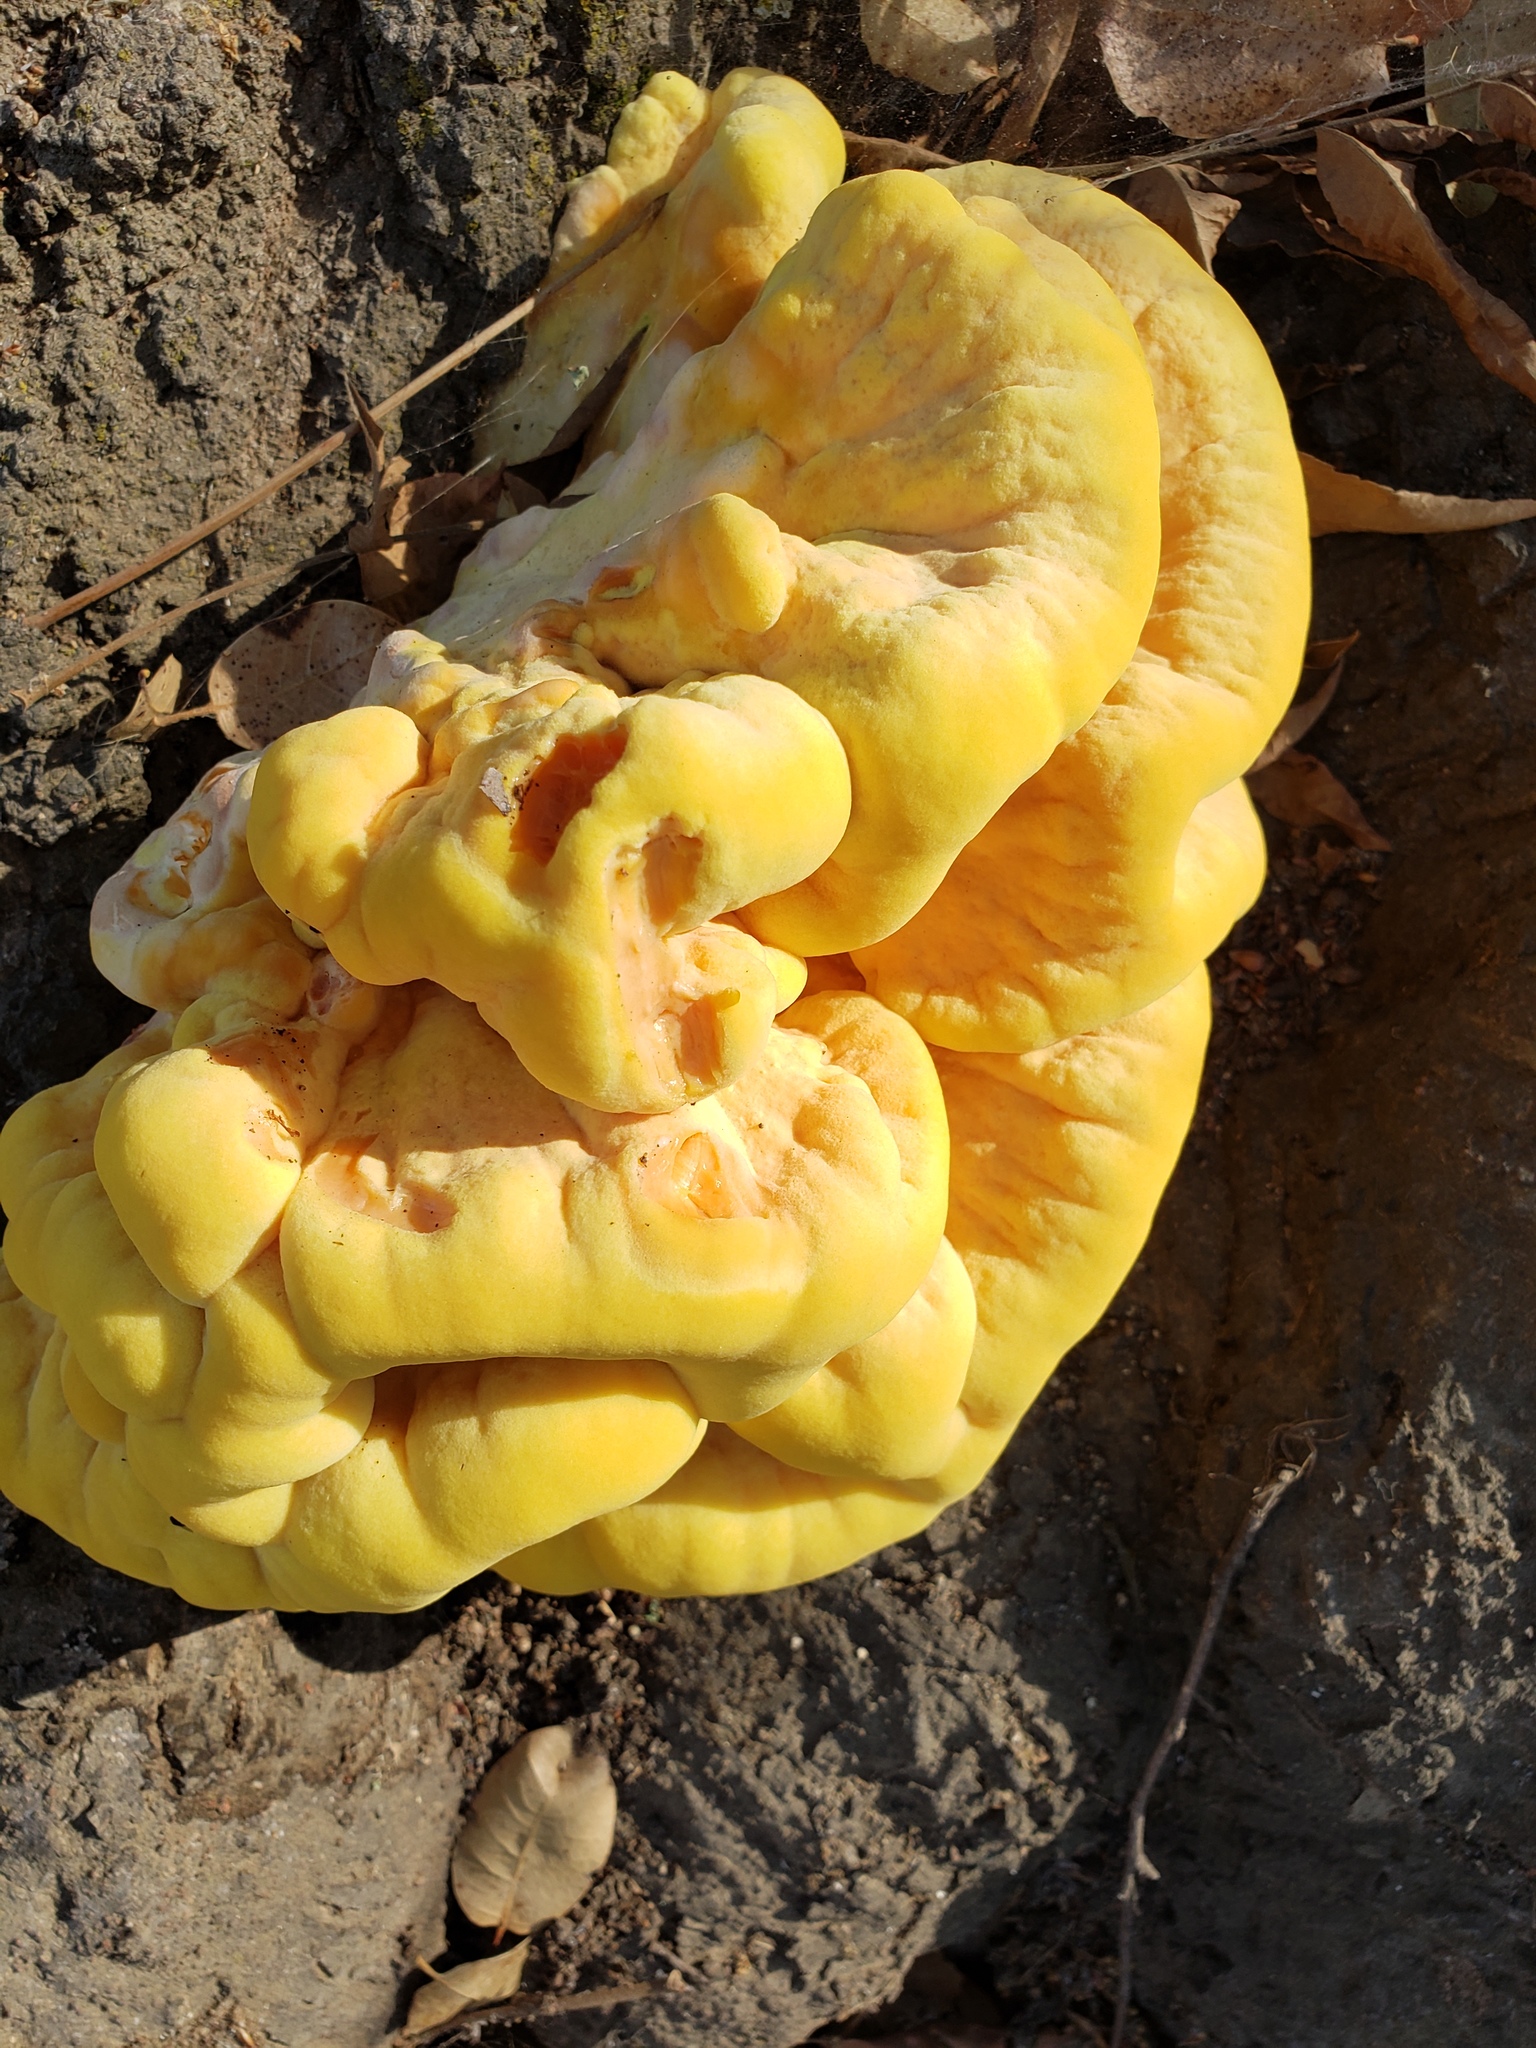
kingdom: Fungi
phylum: Basidiomycota
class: Agaricomycetes
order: Polyporales
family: Laetiporaceae
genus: Laetiporus
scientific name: Laetiporus gilbertsonii
